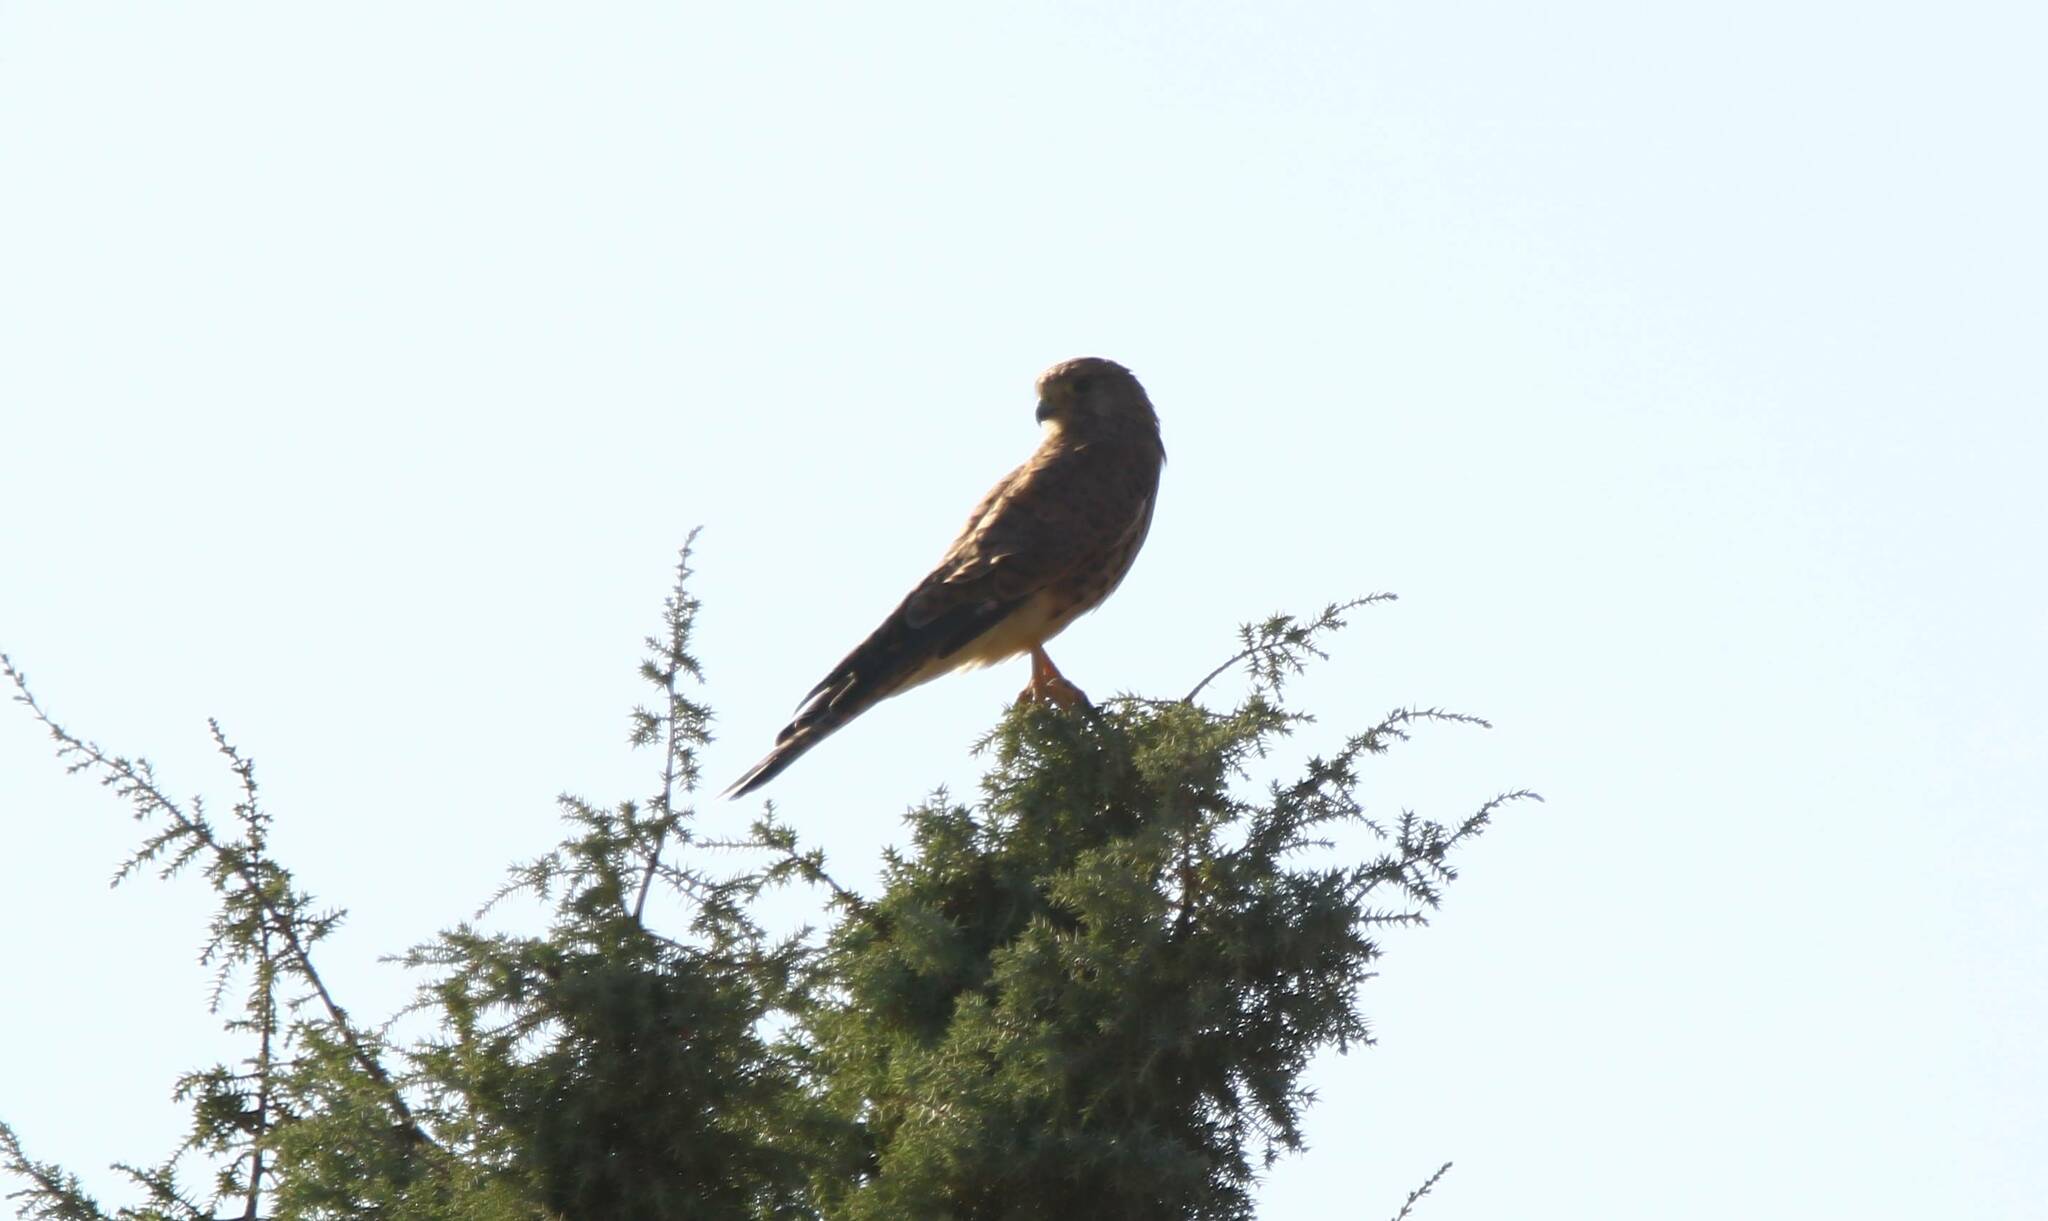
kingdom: Animalia
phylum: Chordata
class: Aves
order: Falconiformes
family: Falconidae
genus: Falco
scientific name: Falco tinnunculus
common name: Common kestrel
